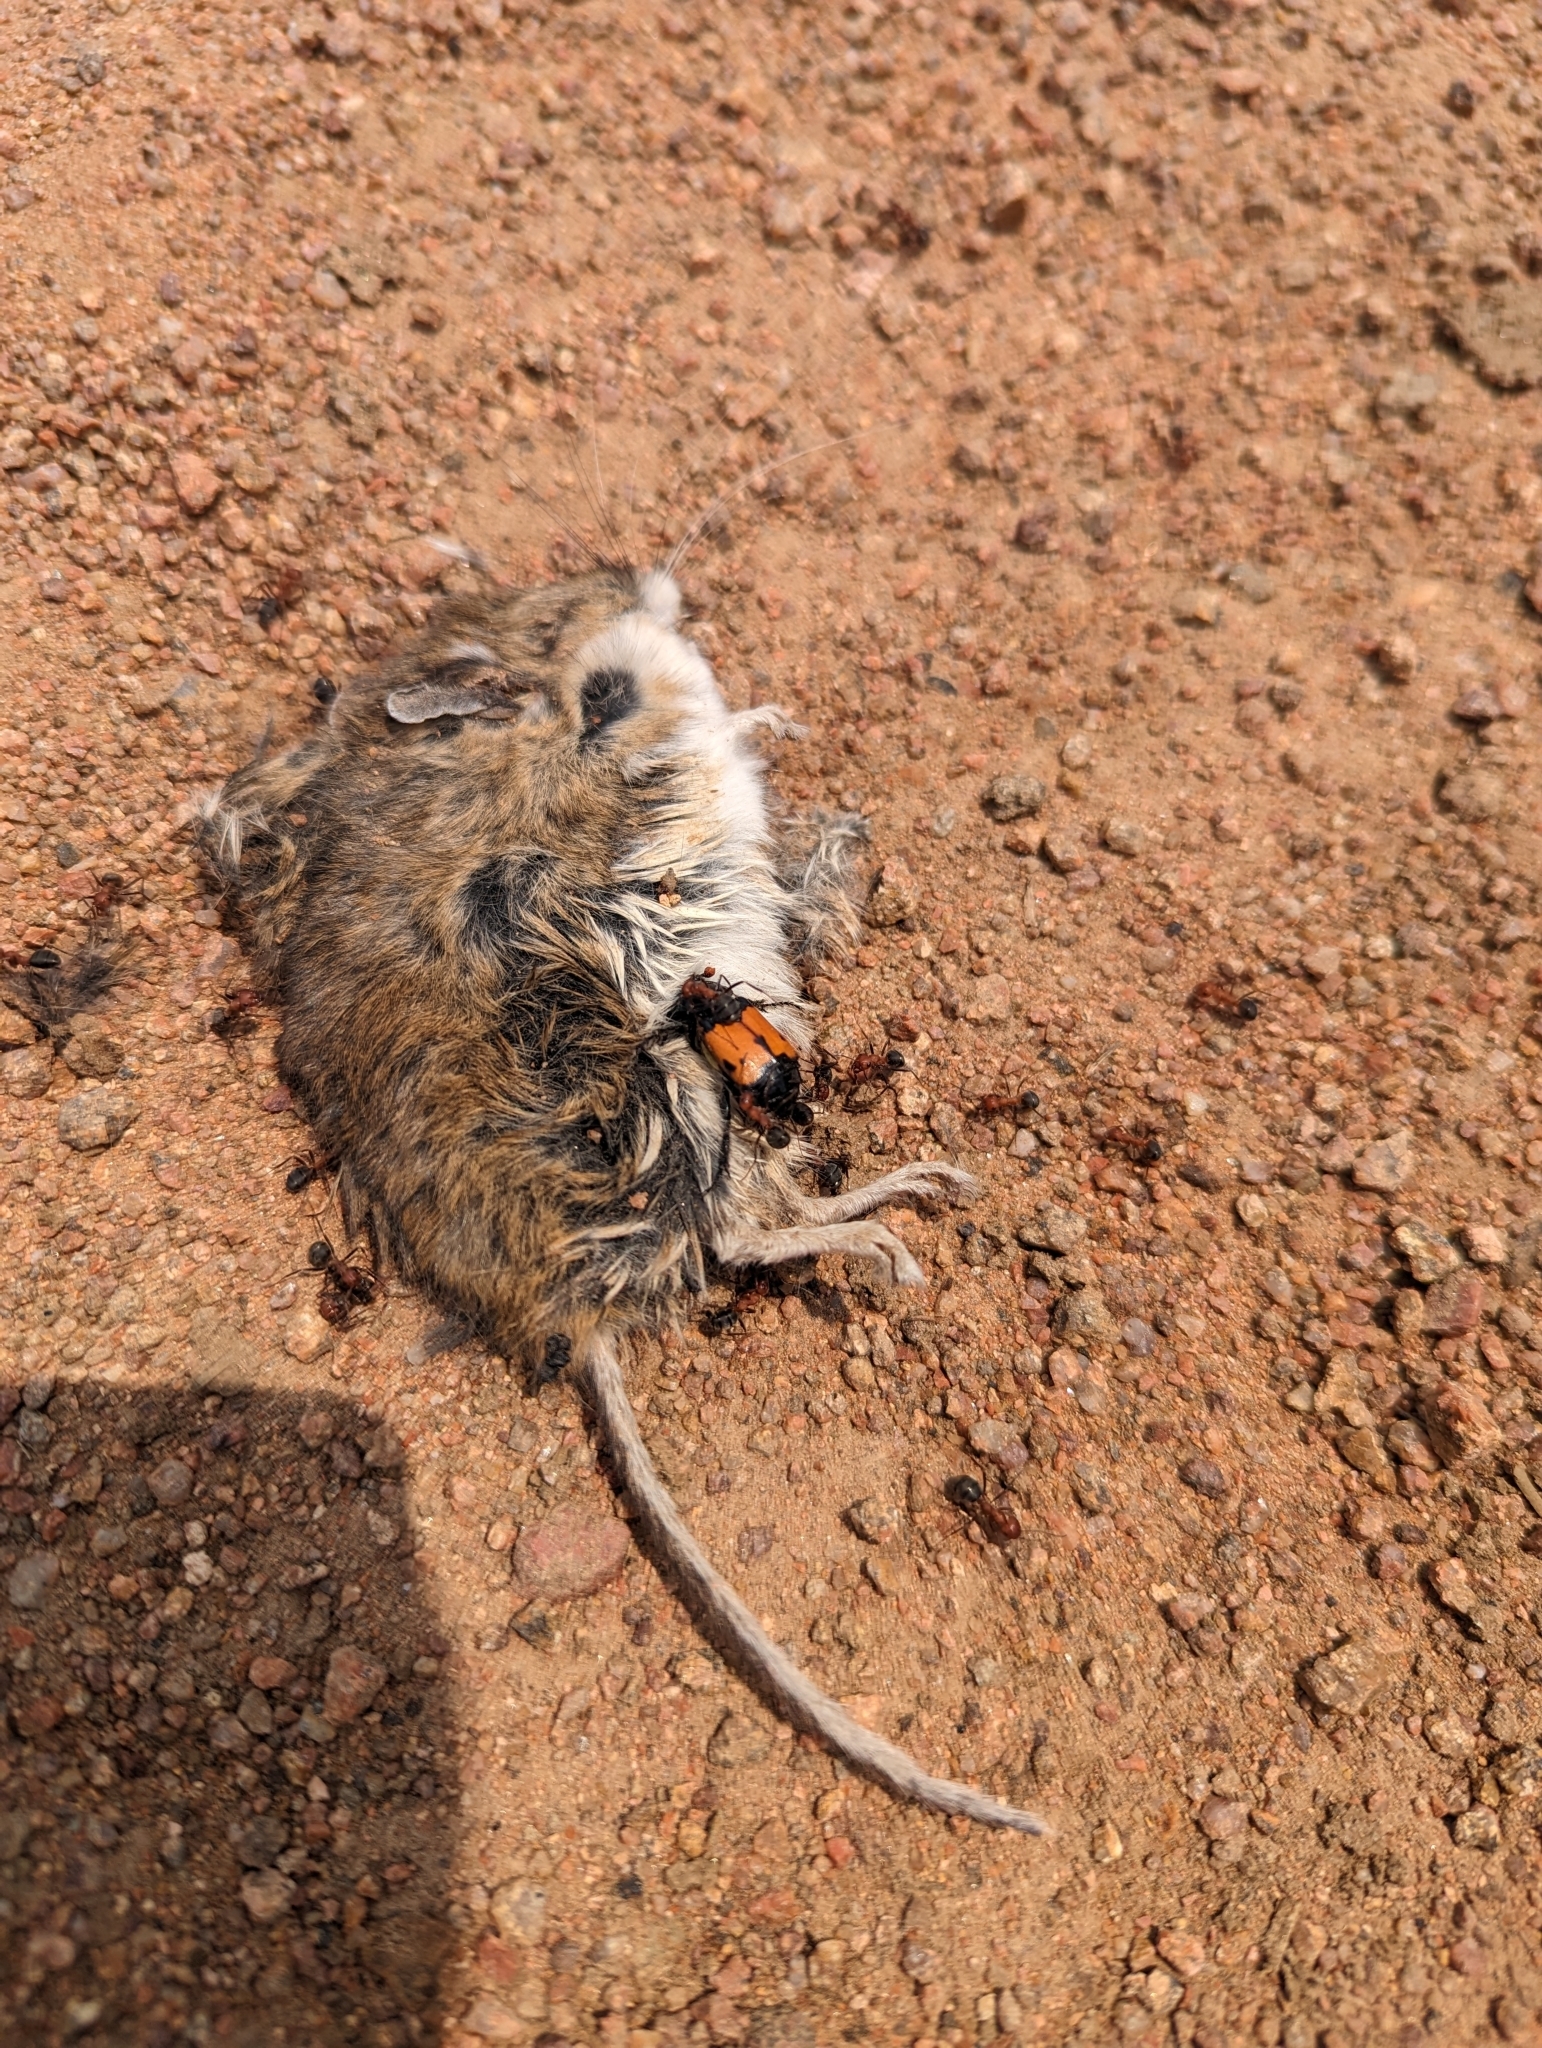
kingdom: Animalia
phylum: Arthropoda
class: Insecta
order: Coleoptera
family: Staphylinidae
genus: Nicrophorus
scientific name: Nicrophorus guttula
